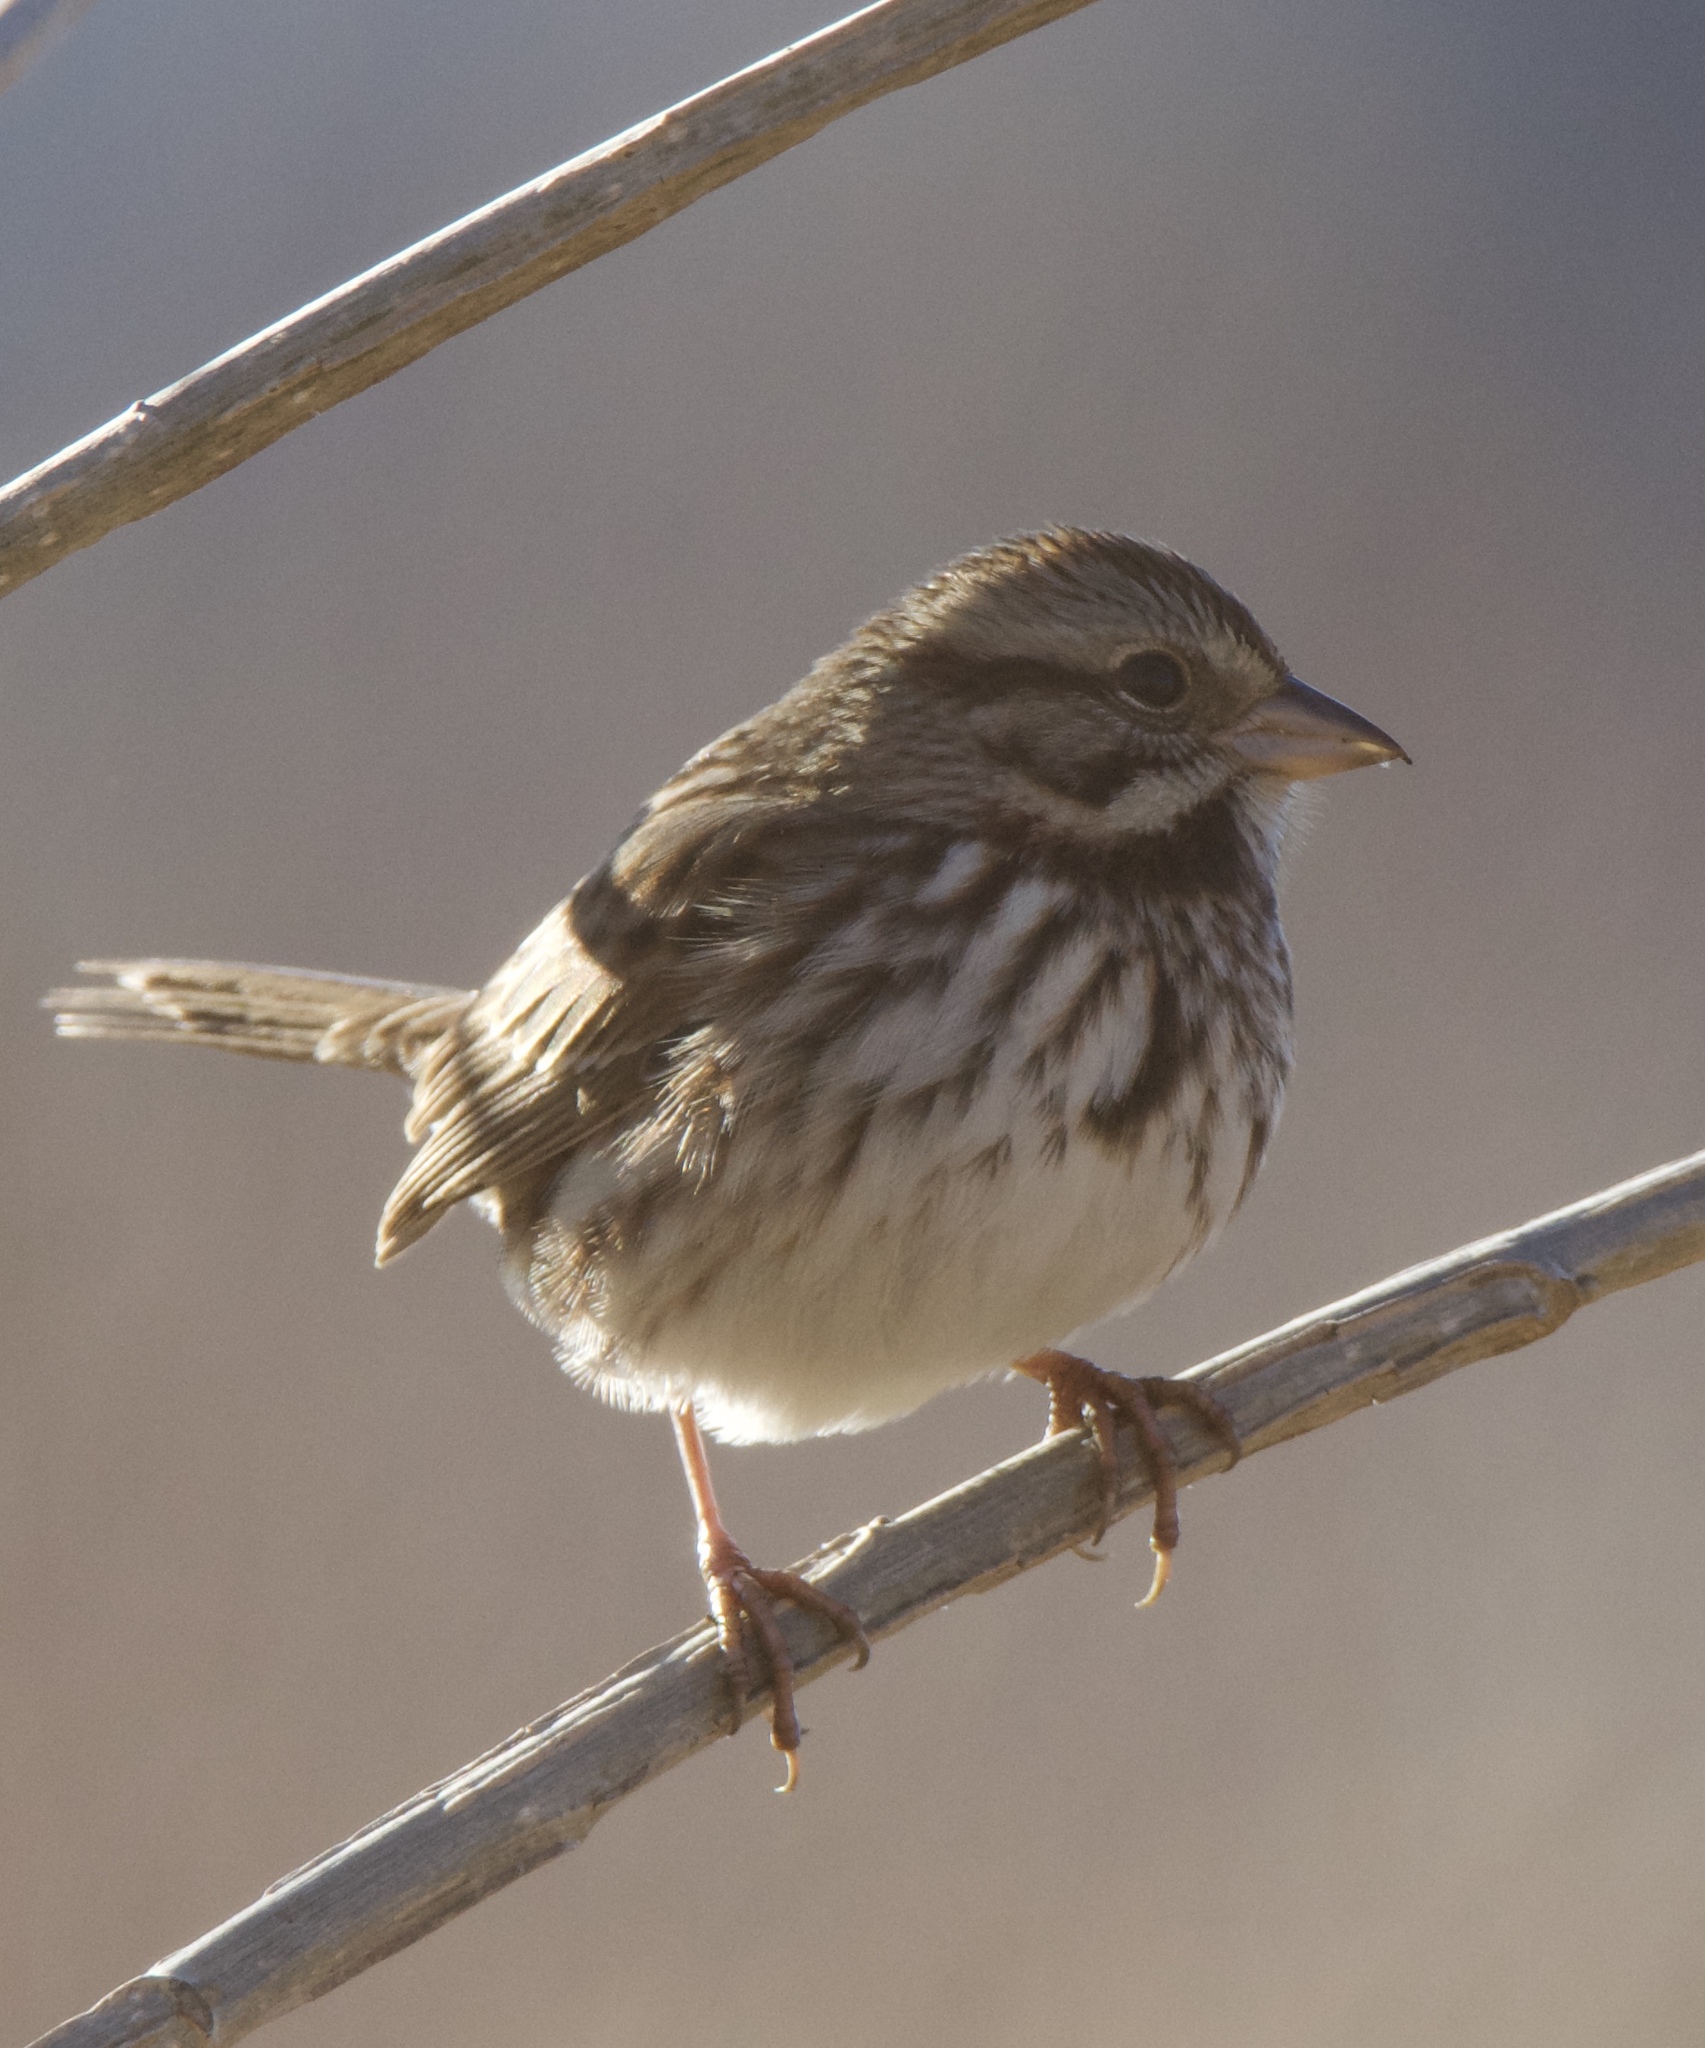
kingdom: Animalia
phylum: Chordata
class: Aves
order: Passeriformes
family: Passerellidae
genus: Melospiza
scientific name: Melospiza melodia
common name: Song sparrow
